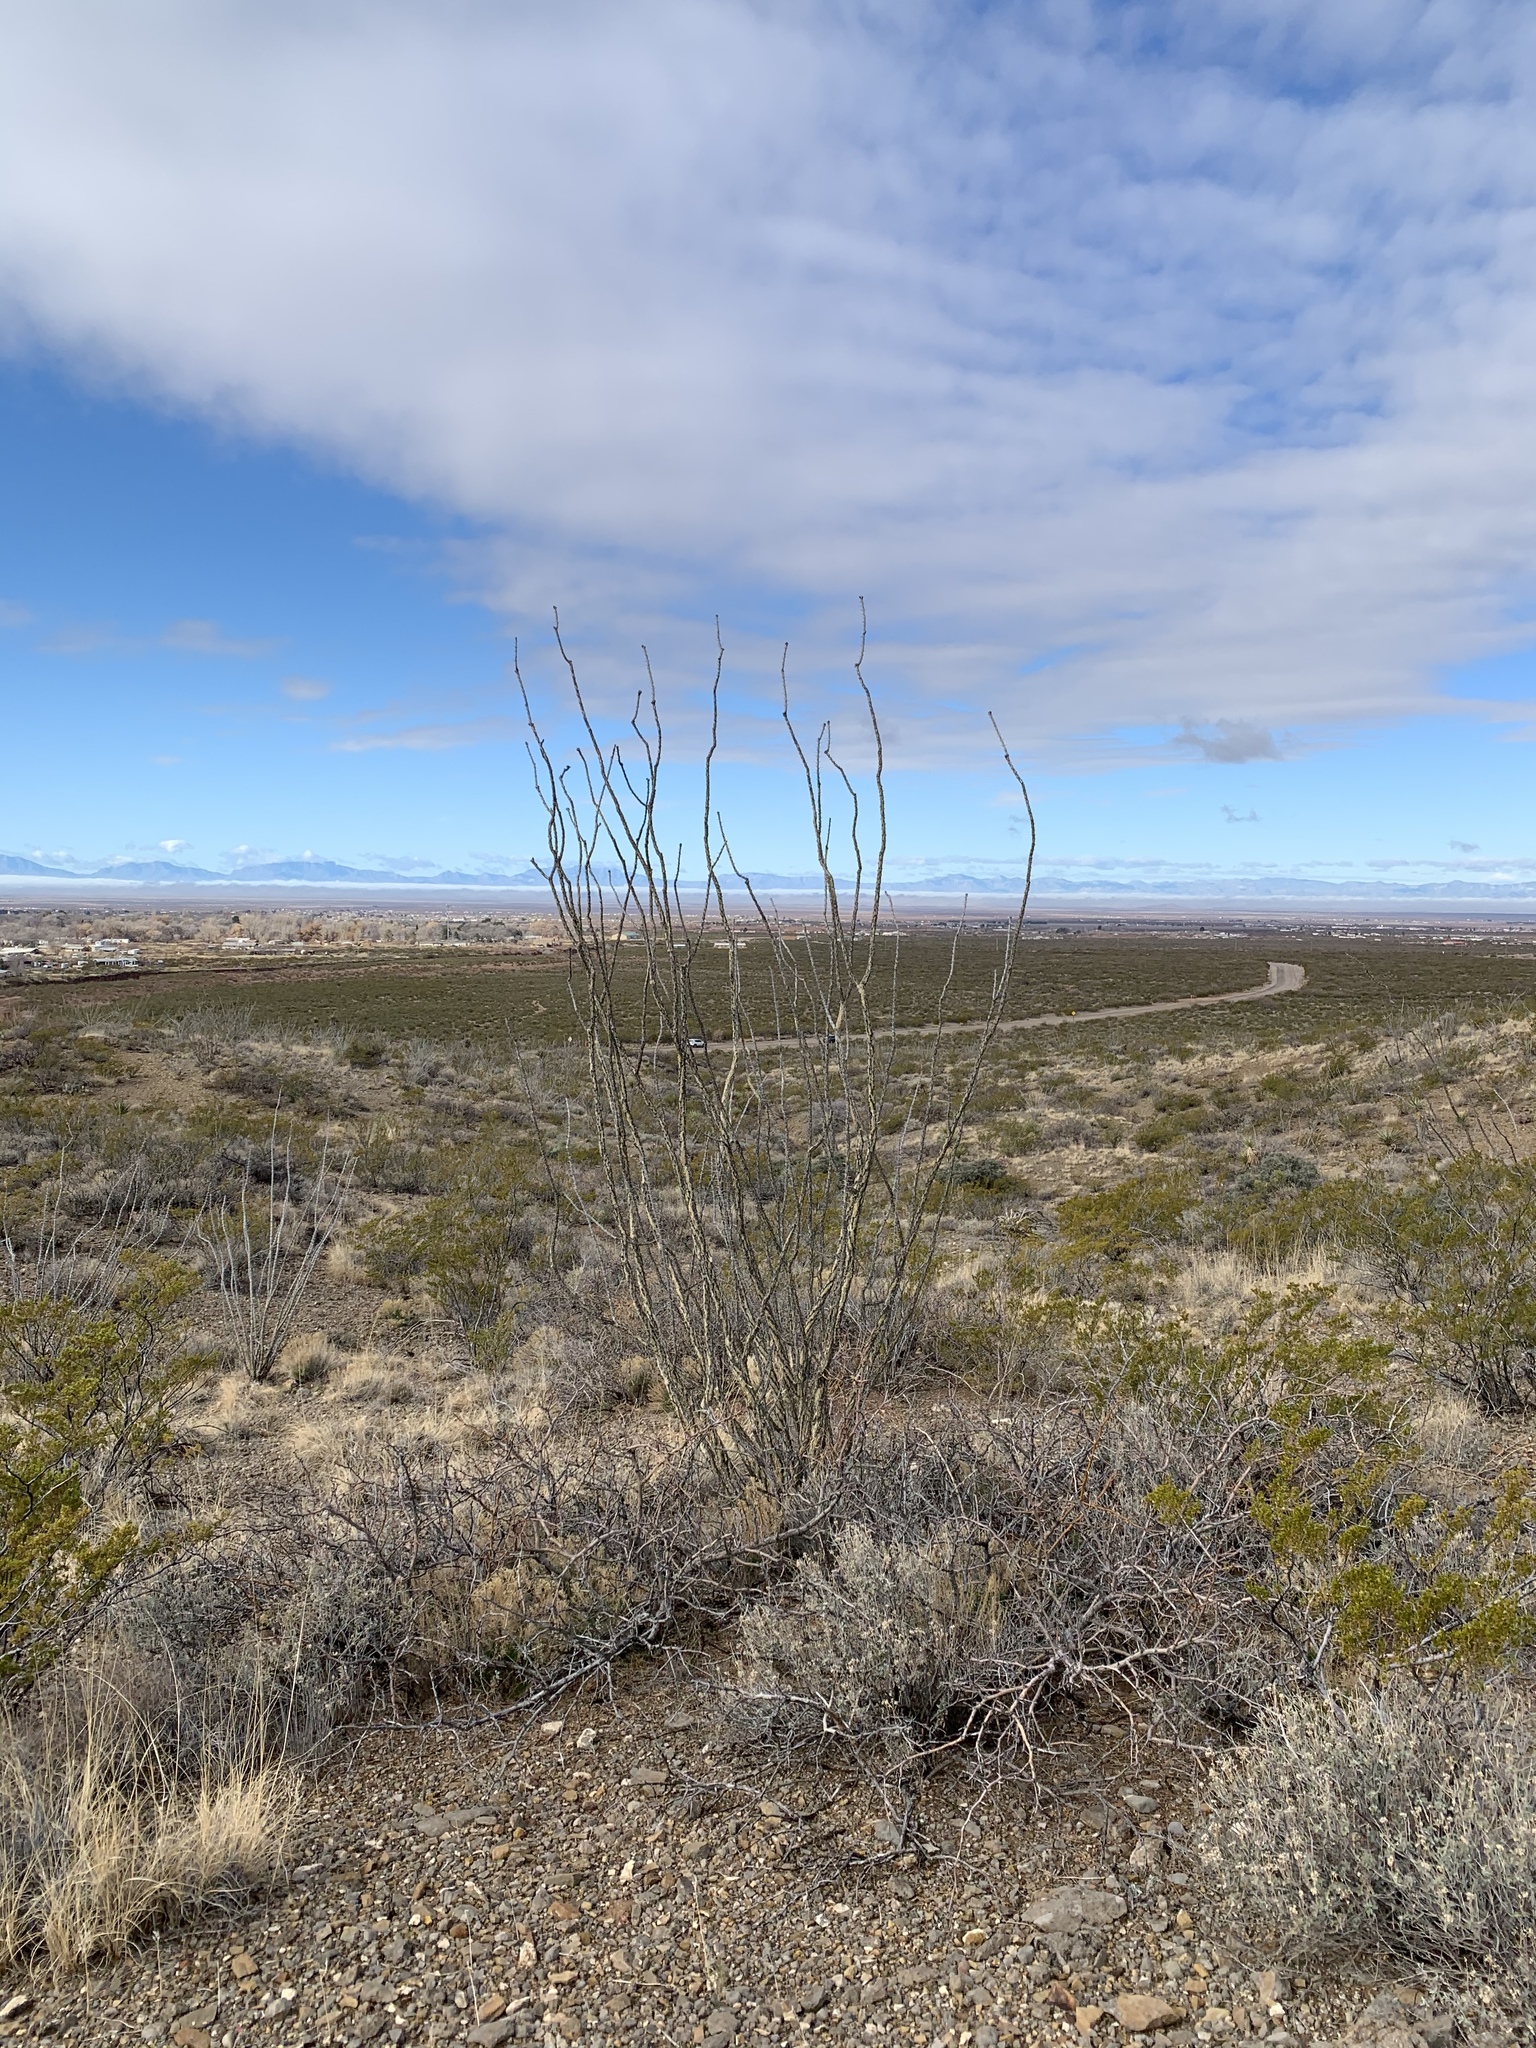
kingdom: Plantae
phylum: Tracheophyta
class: Magnoliopsida
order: Ericales
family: Fouquieriaceae
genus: Fouquieria
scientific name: Fouquieria splendens
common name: Vine-cactus
